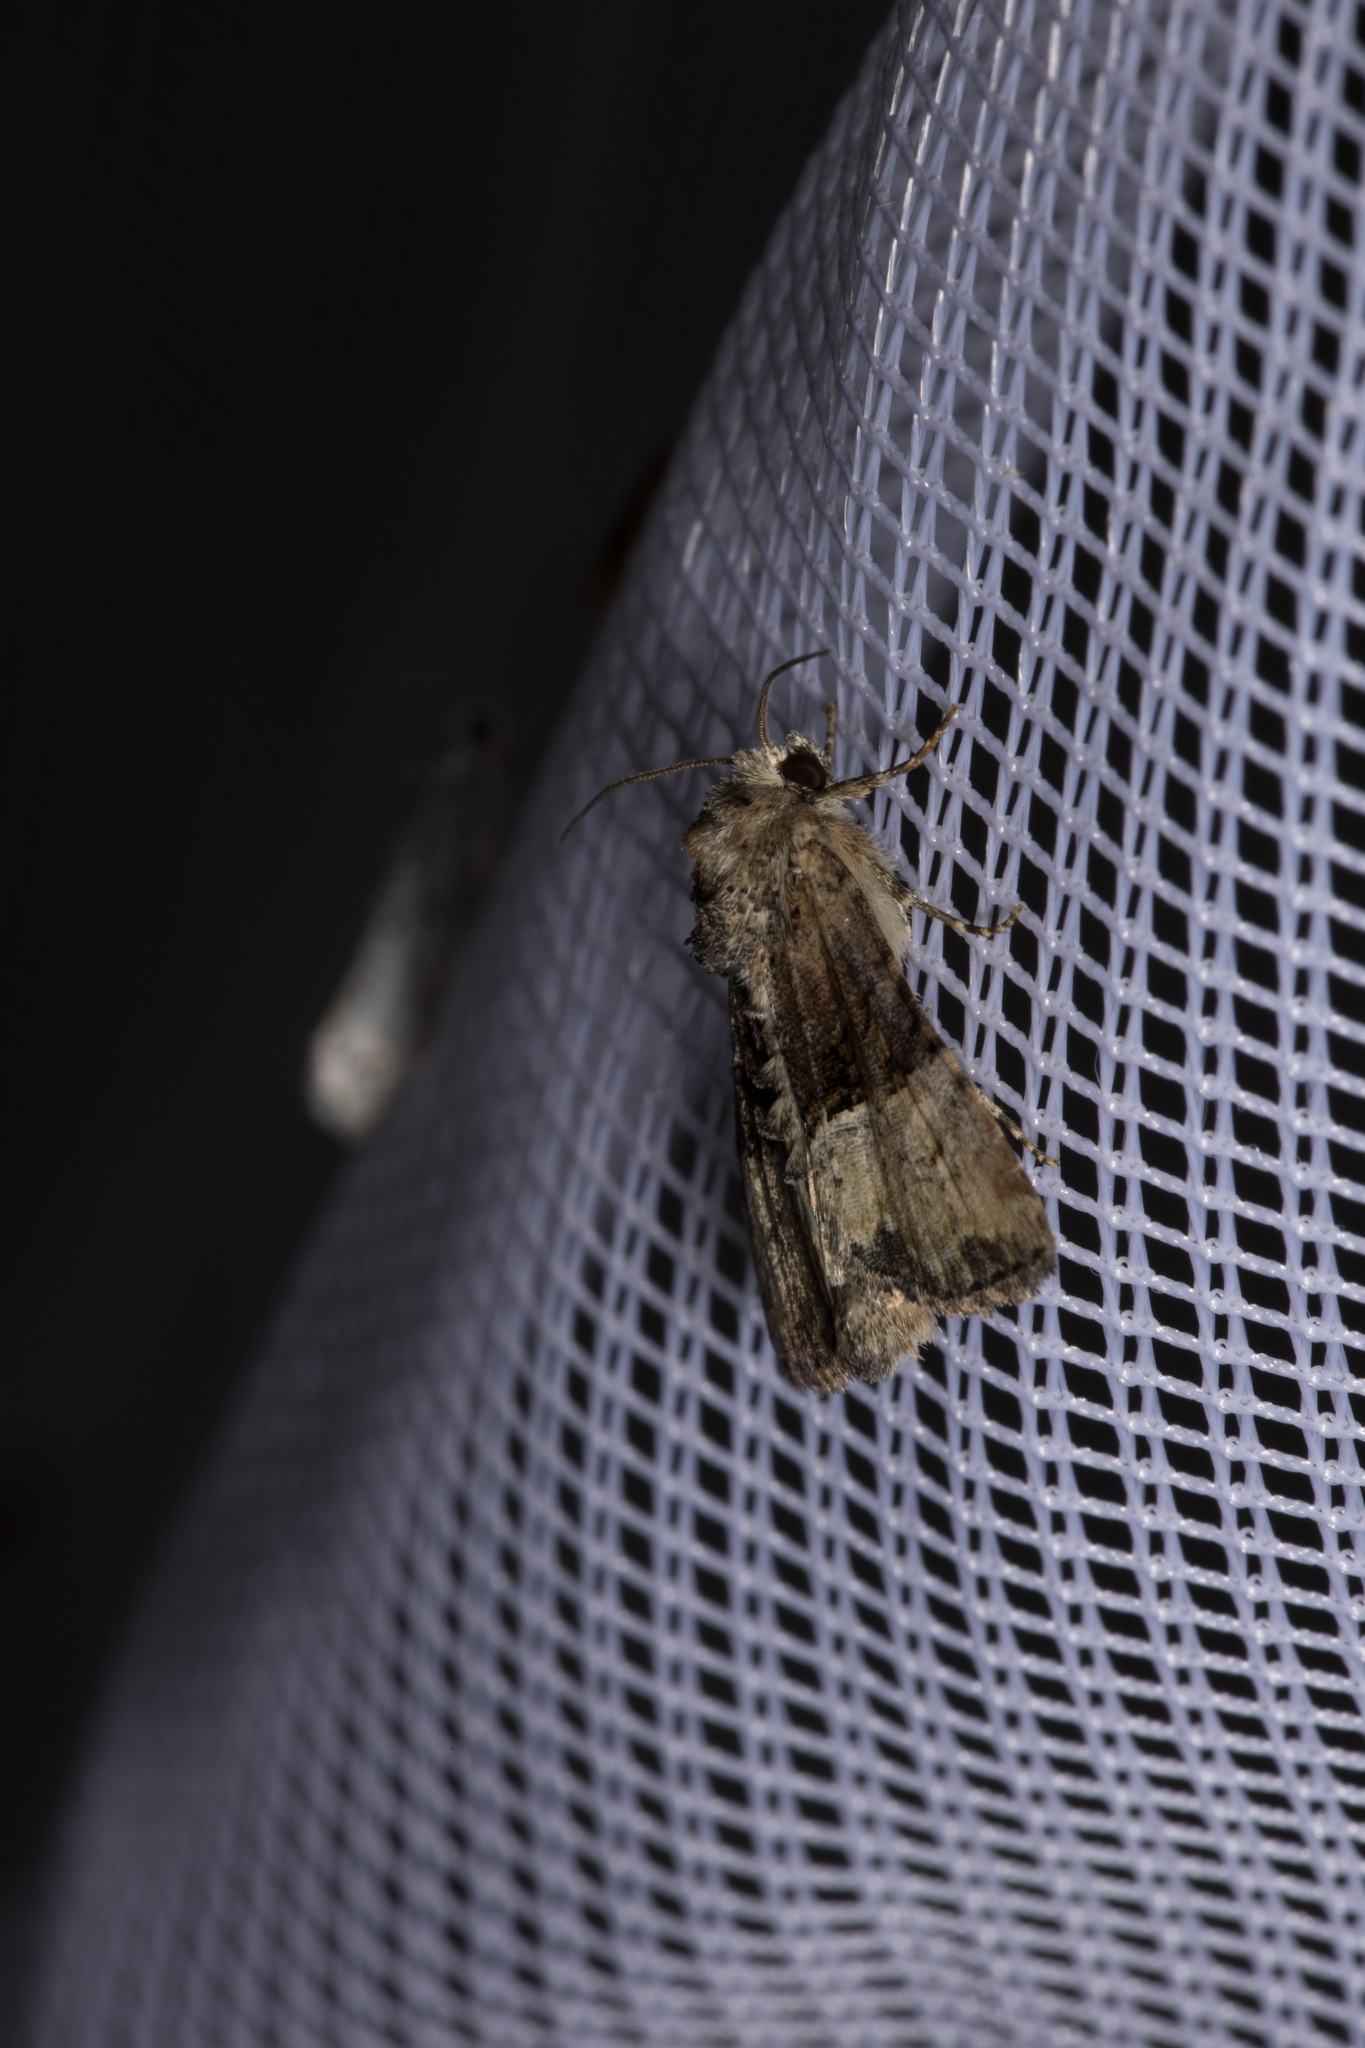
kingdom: Animalia
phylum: Arthropoda
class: Insecta
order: Lepidoptera
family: Noctuidae
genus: Mesoligia
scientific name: Mesoligia furuncula
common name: Cloaked minor
